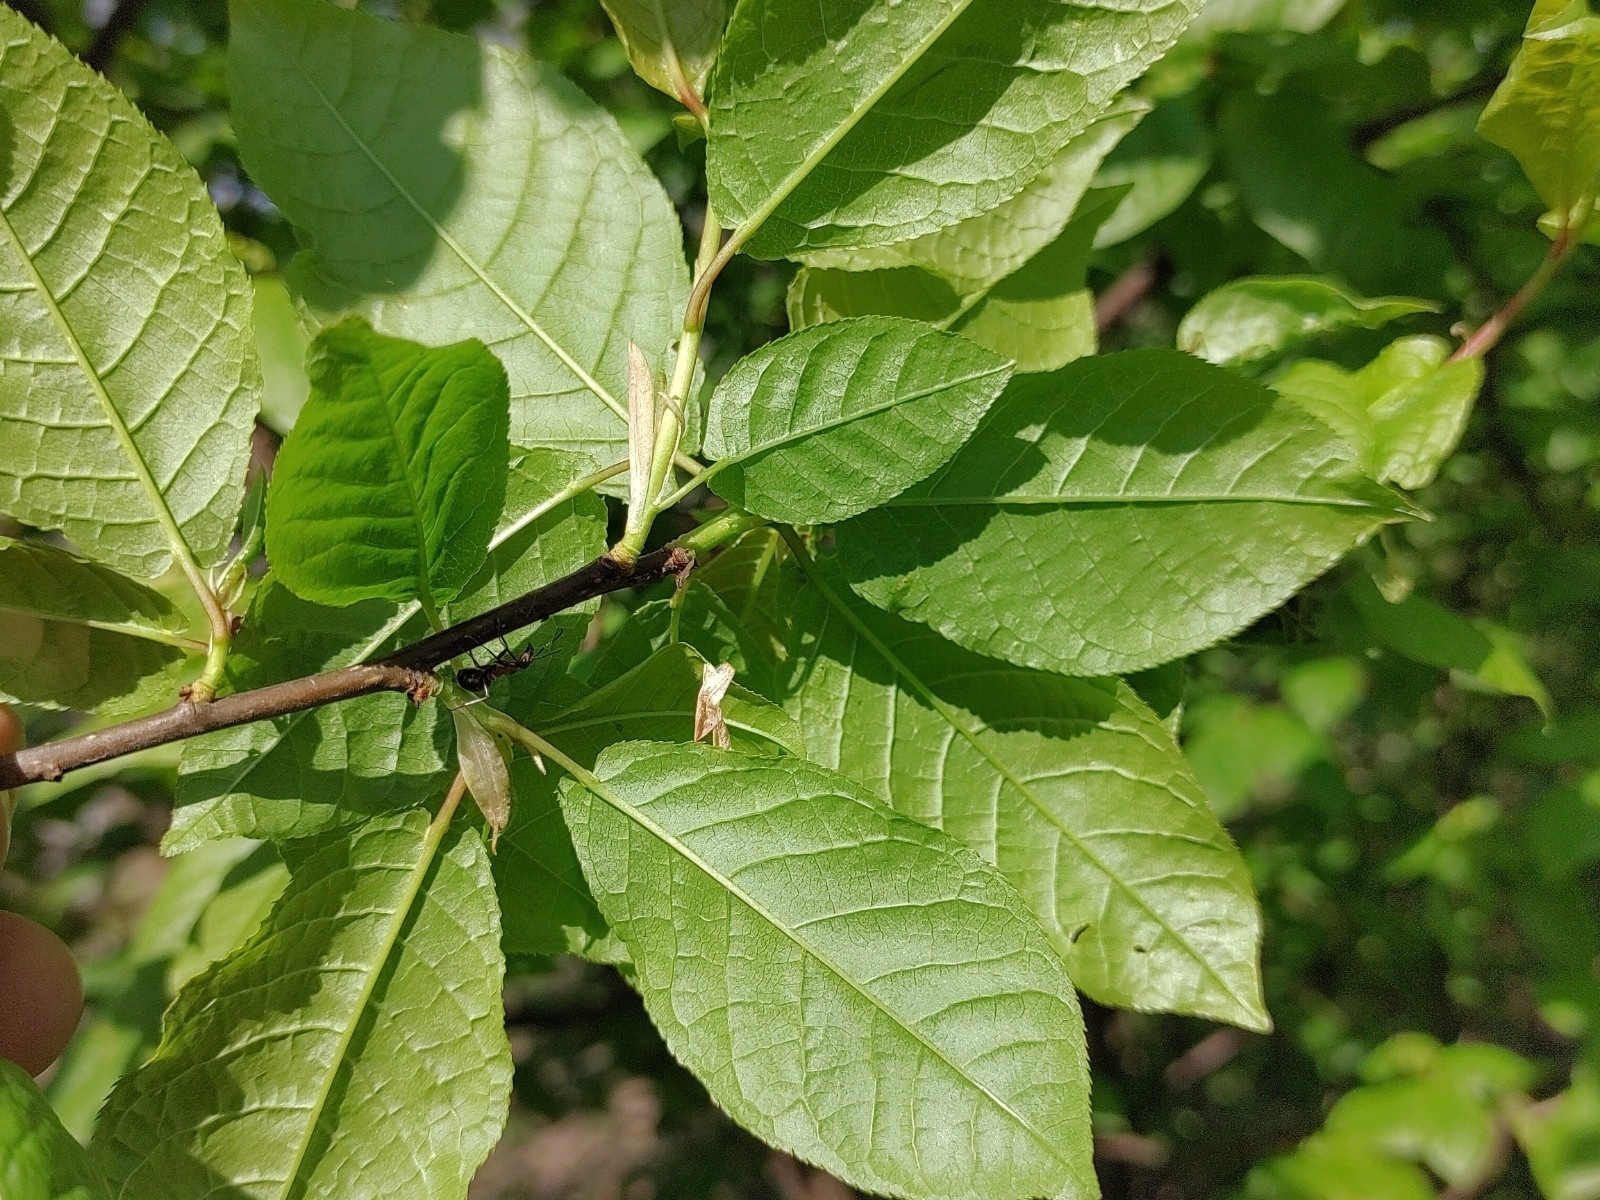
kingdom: Plantae
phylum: Tracheophyta
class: Magnoliopsida
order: Rosales
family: Rosaceae
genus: Prunus
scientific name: Prunus padus
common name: Bird cherry
